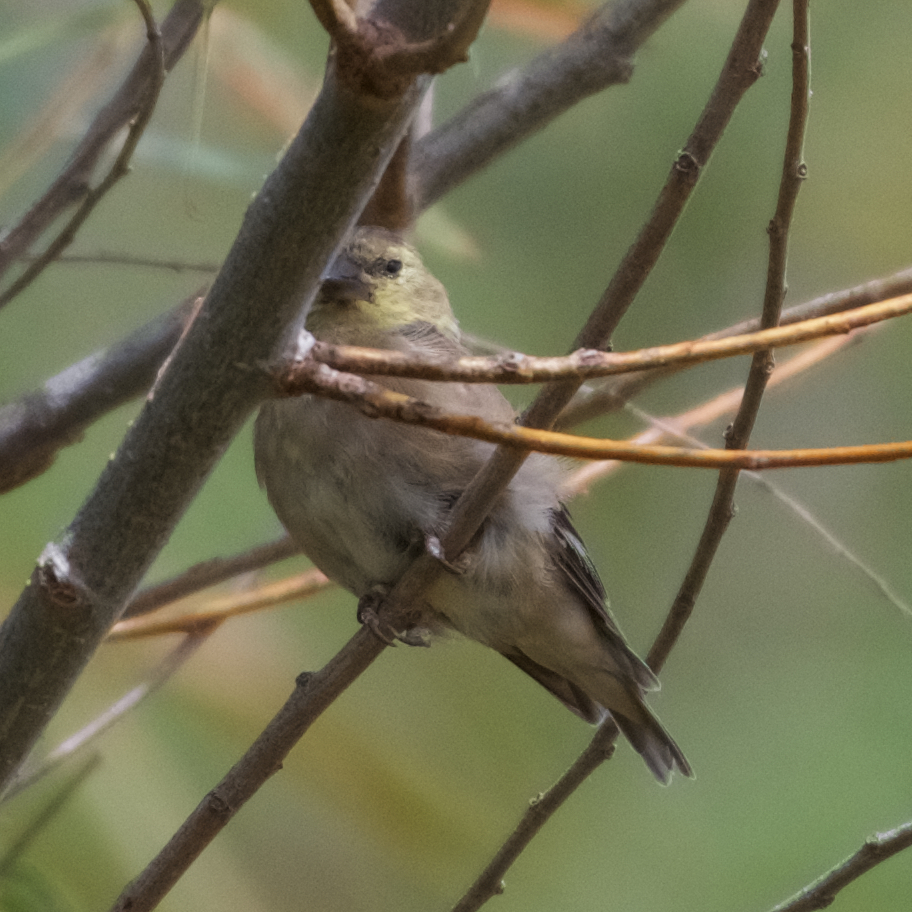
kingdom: Animalia
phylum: Chordata
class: Aves
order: Passeriformes
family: Fringillidae
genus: Spinus
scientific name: Spinus tristis
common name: American goldfinch
